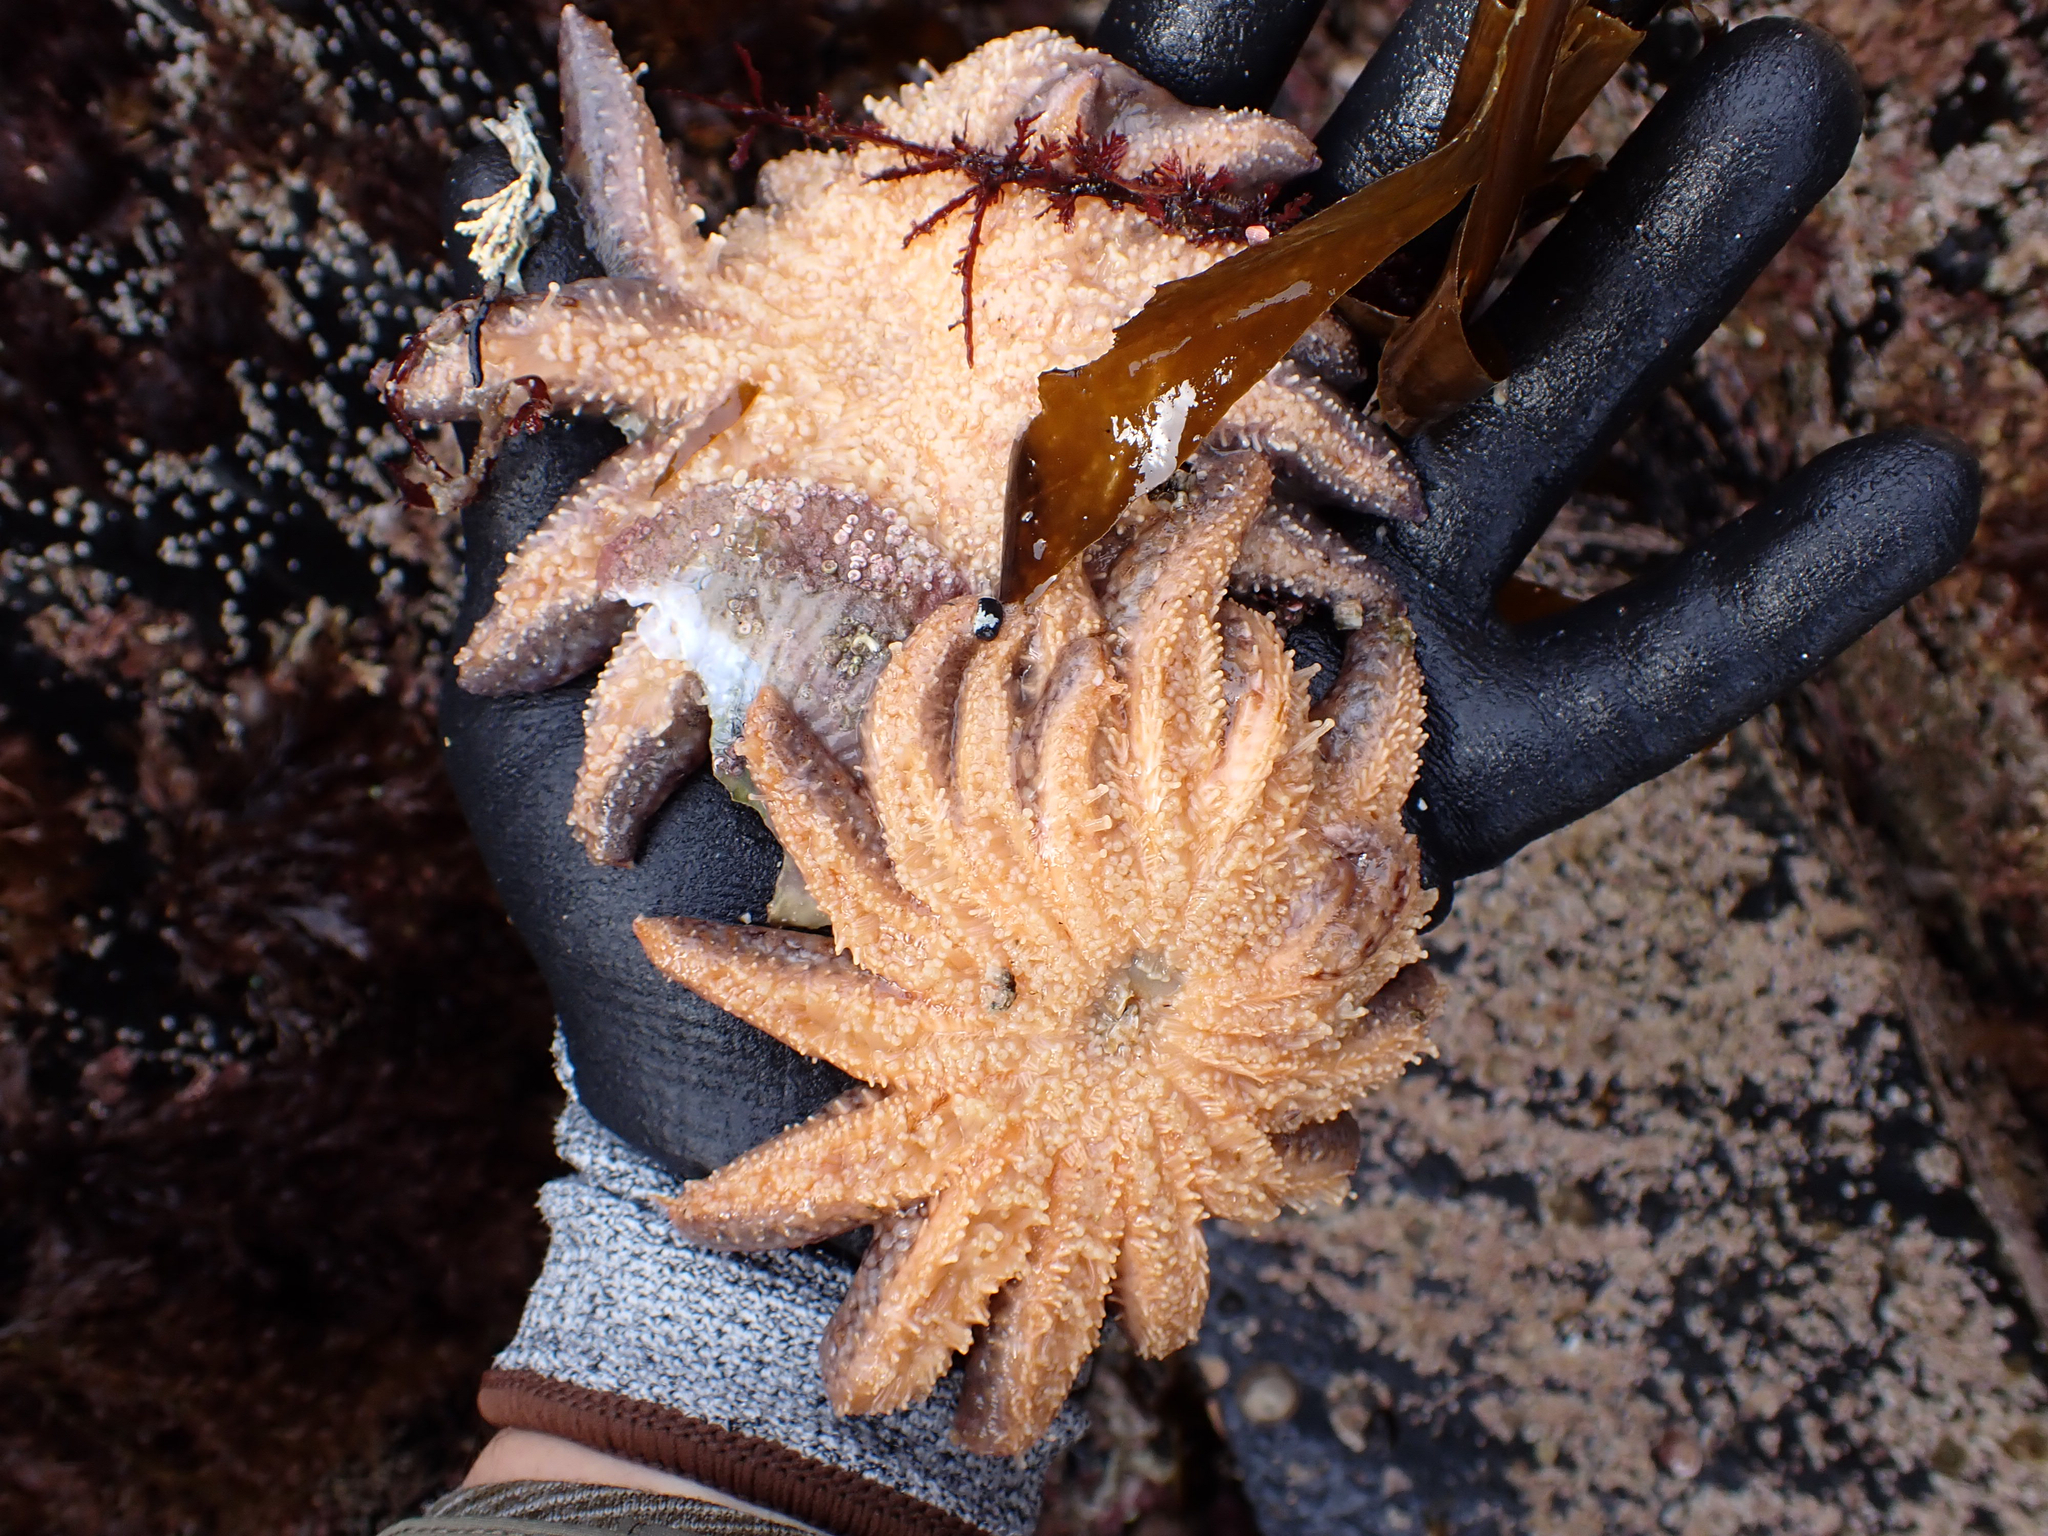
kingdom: Animalia
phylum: Echinodermata
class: Asteroidea
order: Forcipulatida
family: Asteriidae
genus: Pycnopodia
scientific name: Pycnopodia helianthoides
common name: Rag mop
